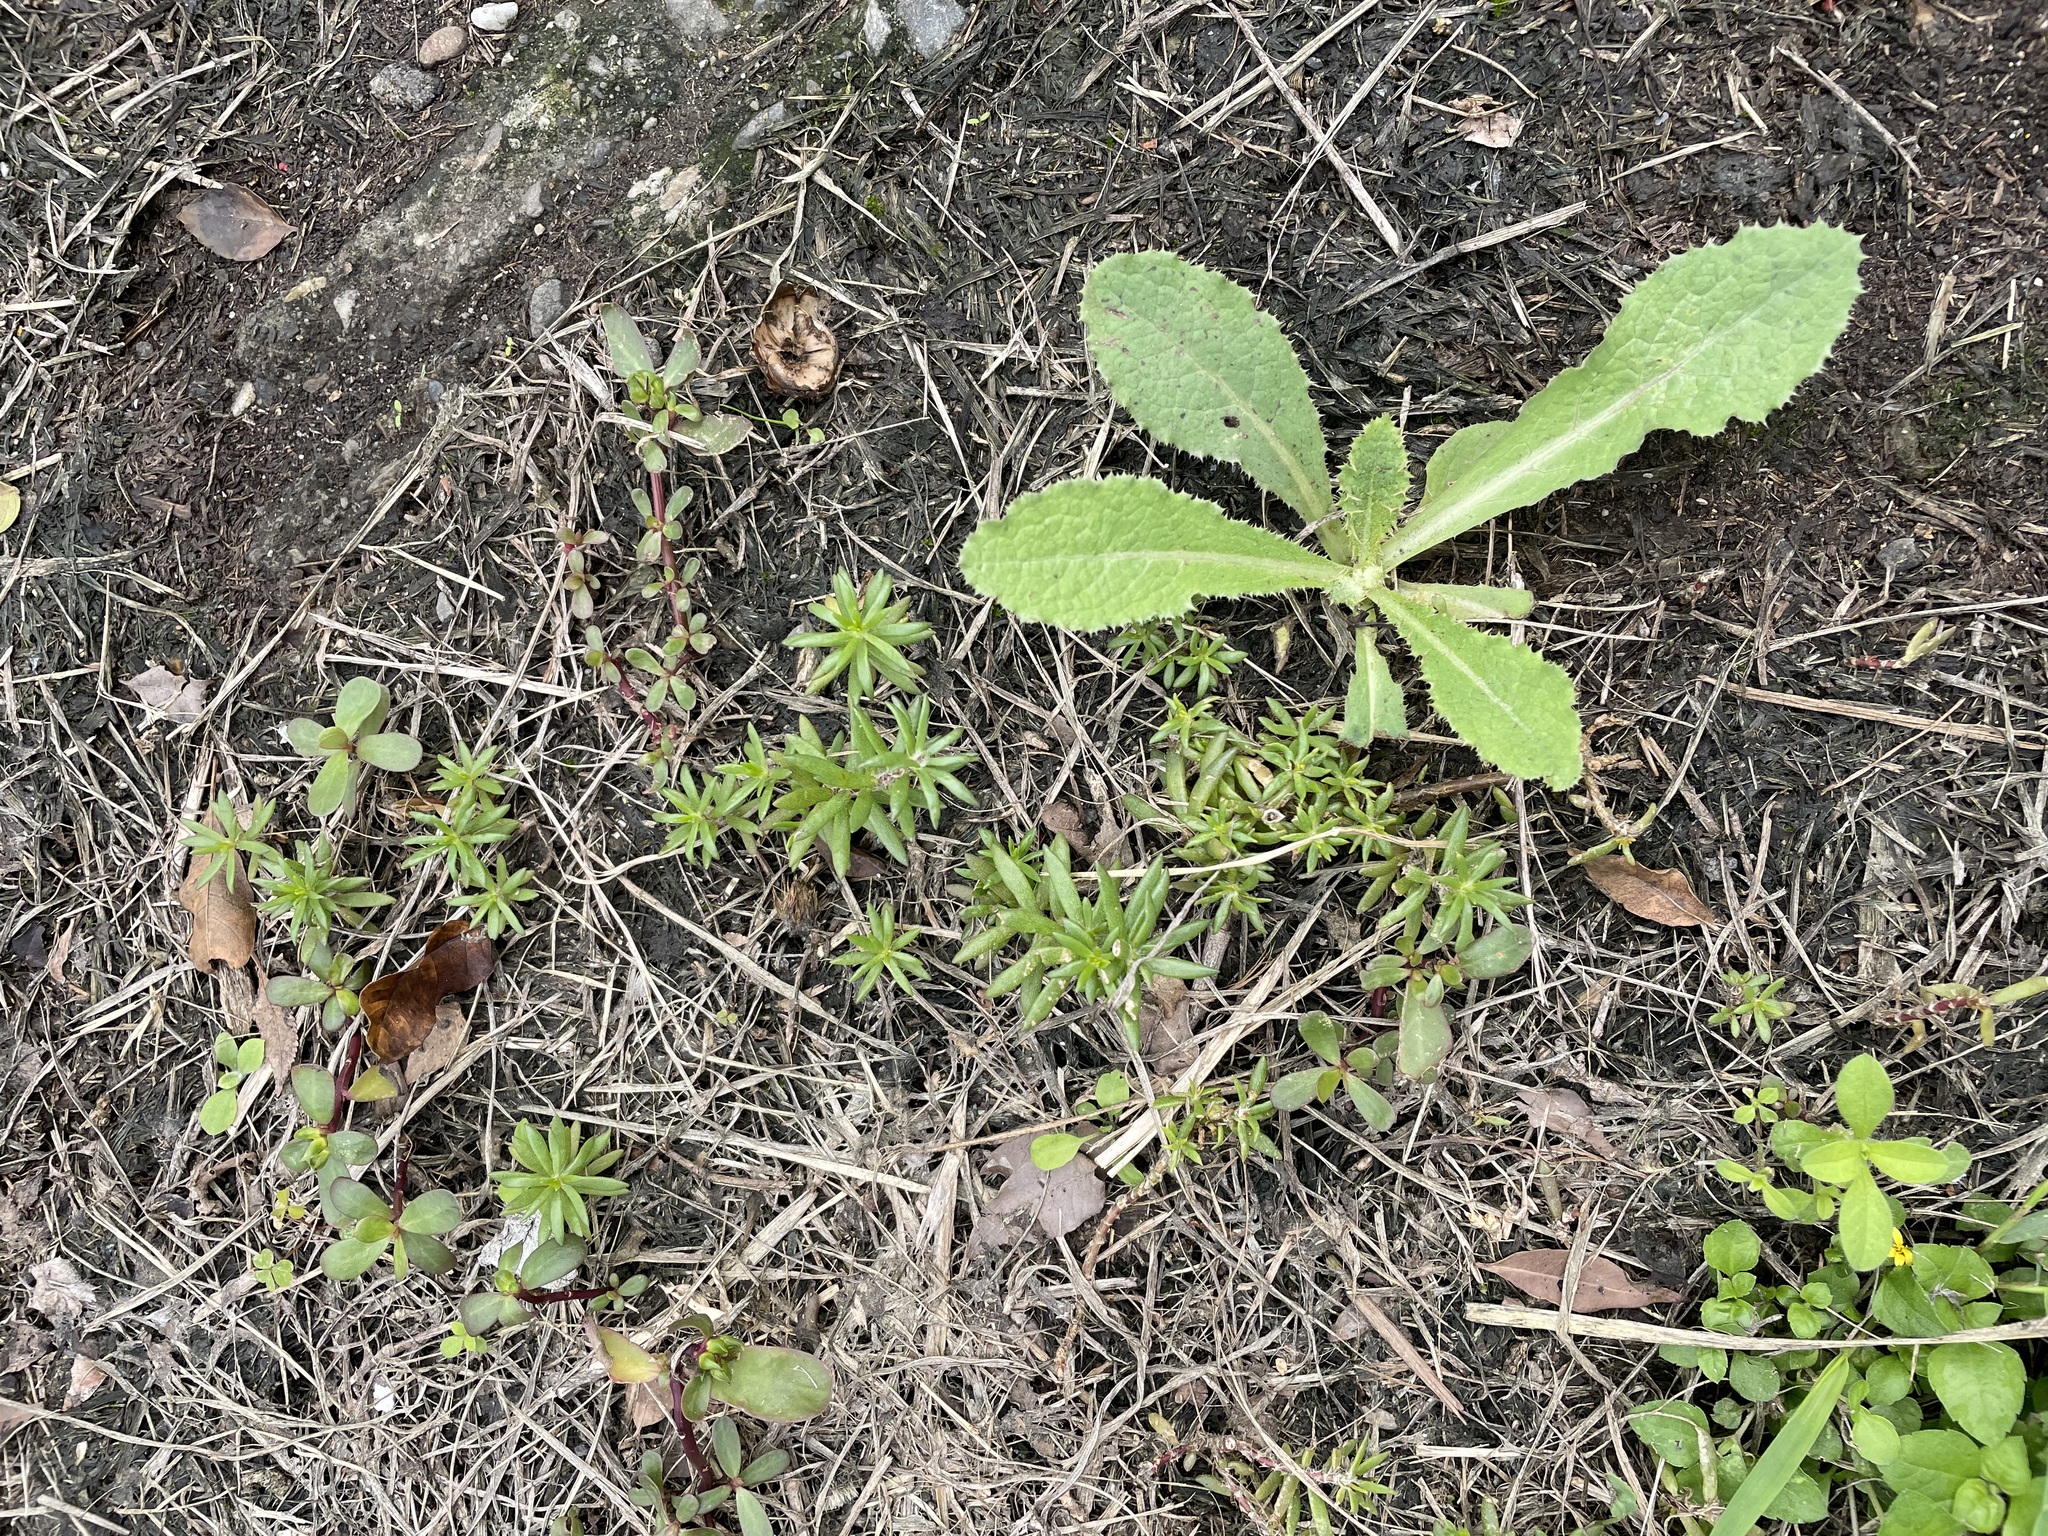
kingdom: Plantae
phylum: Tracheophyta
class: Magnoliopsida
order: Caryophyllales
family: Portulacaceae
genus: Portulaca
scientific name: Portulaca pilosa
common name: Kiss me quick
